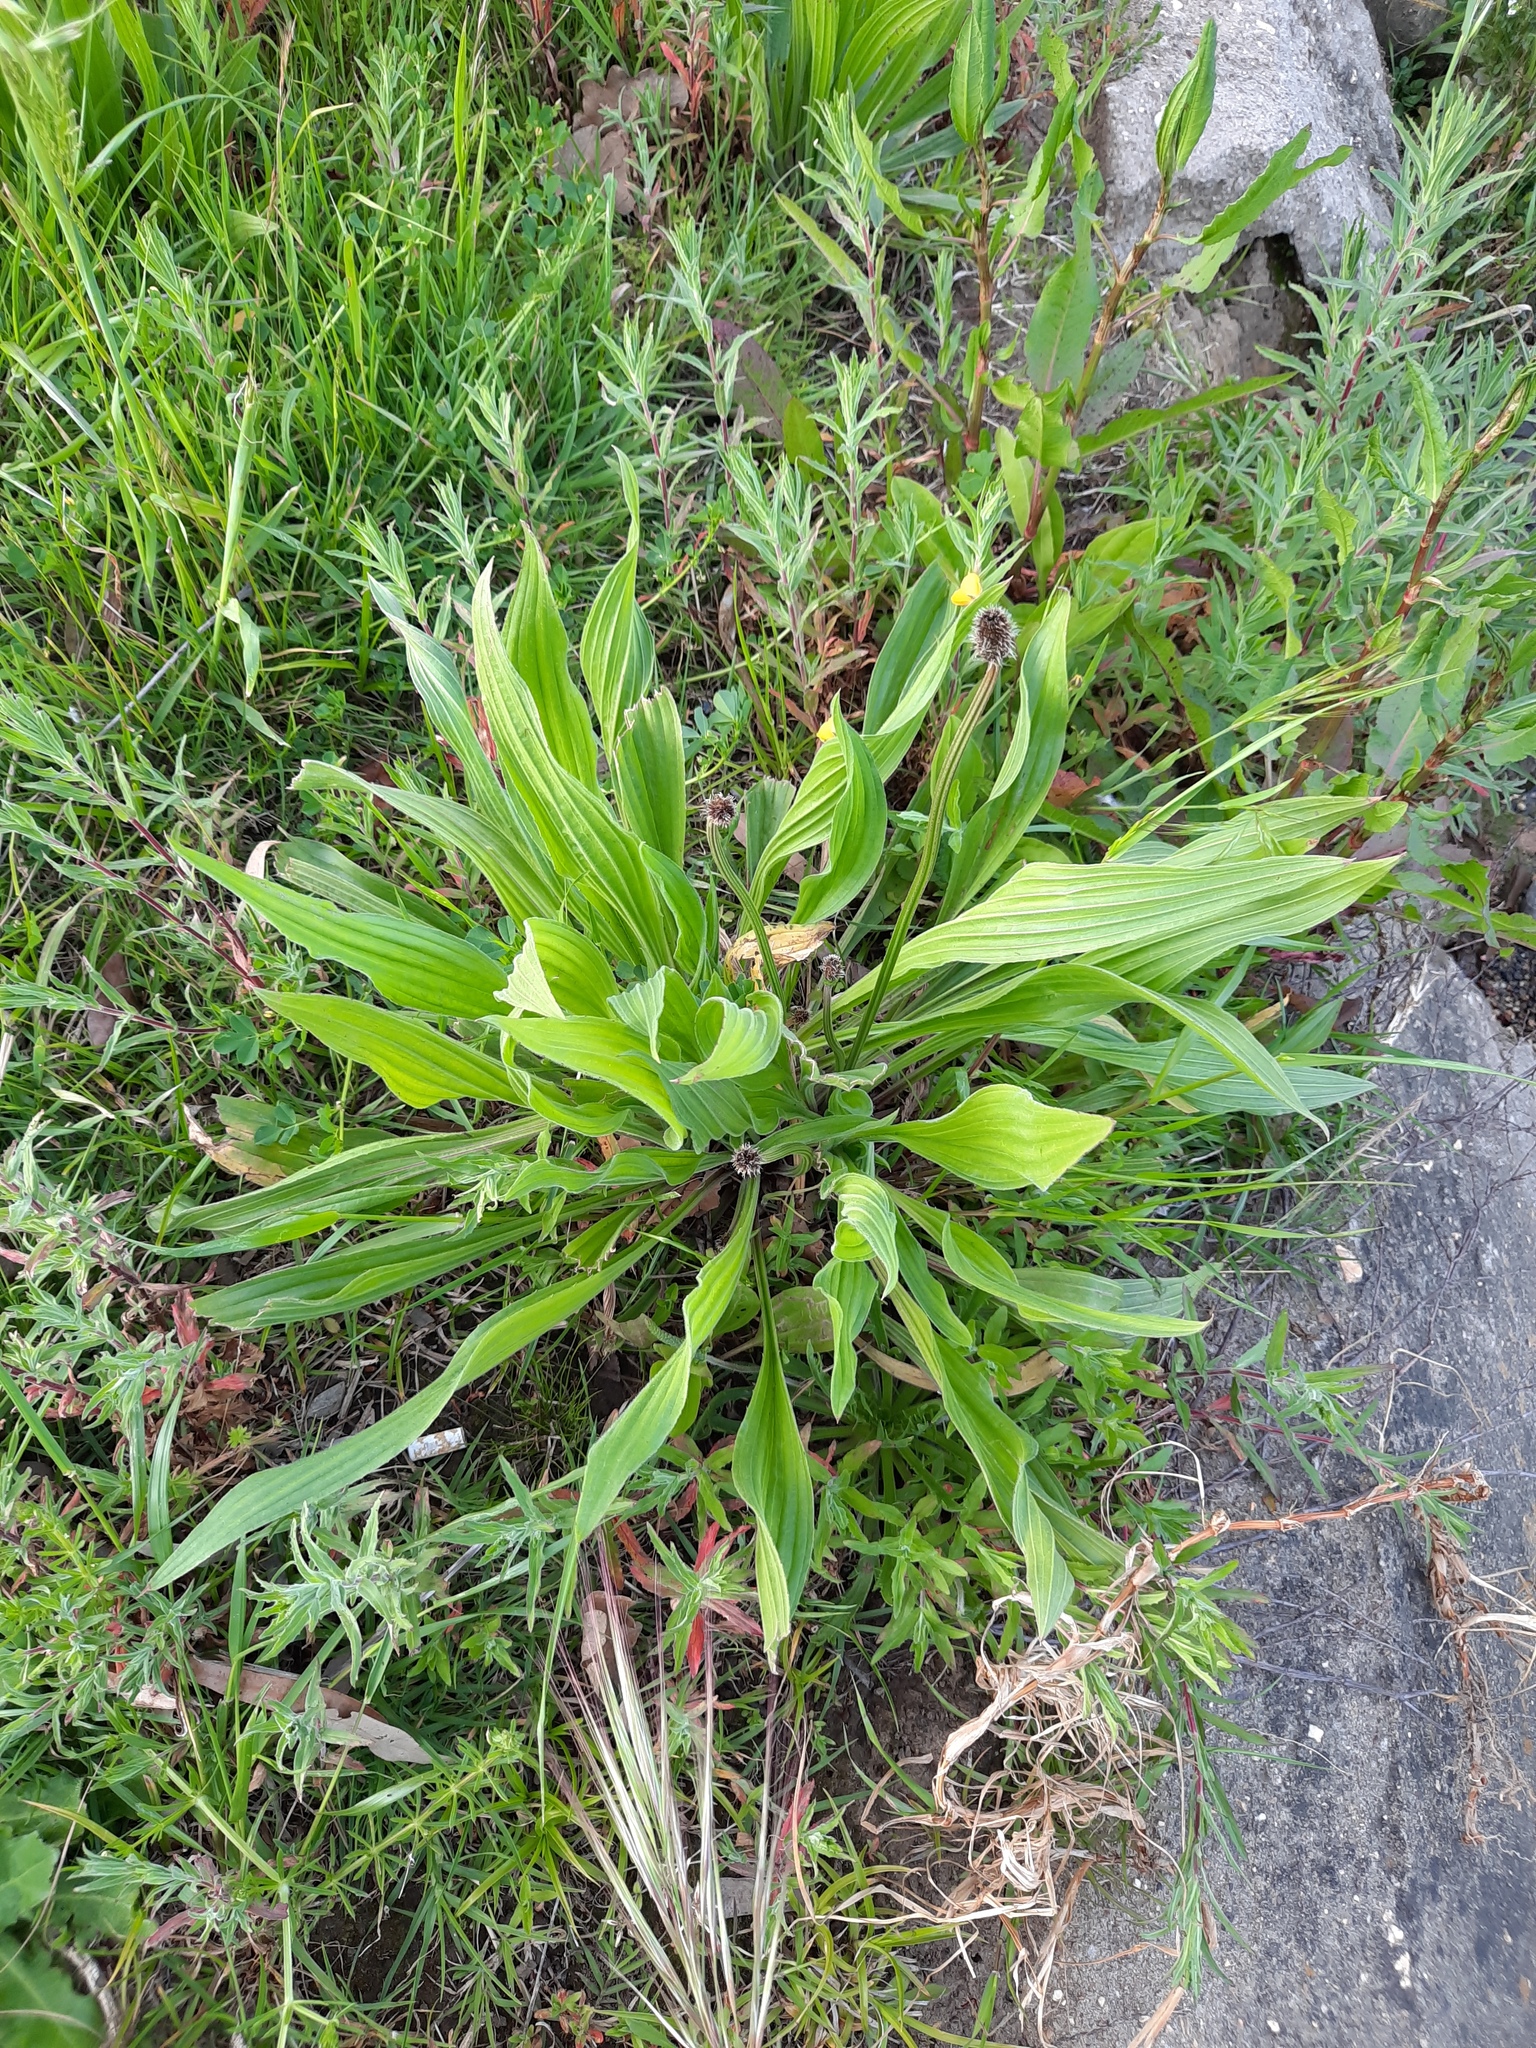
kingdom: Plantae
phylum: Tracheophyta
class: Magnoliopsida
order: Lamiales
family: Plantaginaceae
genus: Plantago
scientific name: Plantago lanceolata
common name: Ribwort plantain
